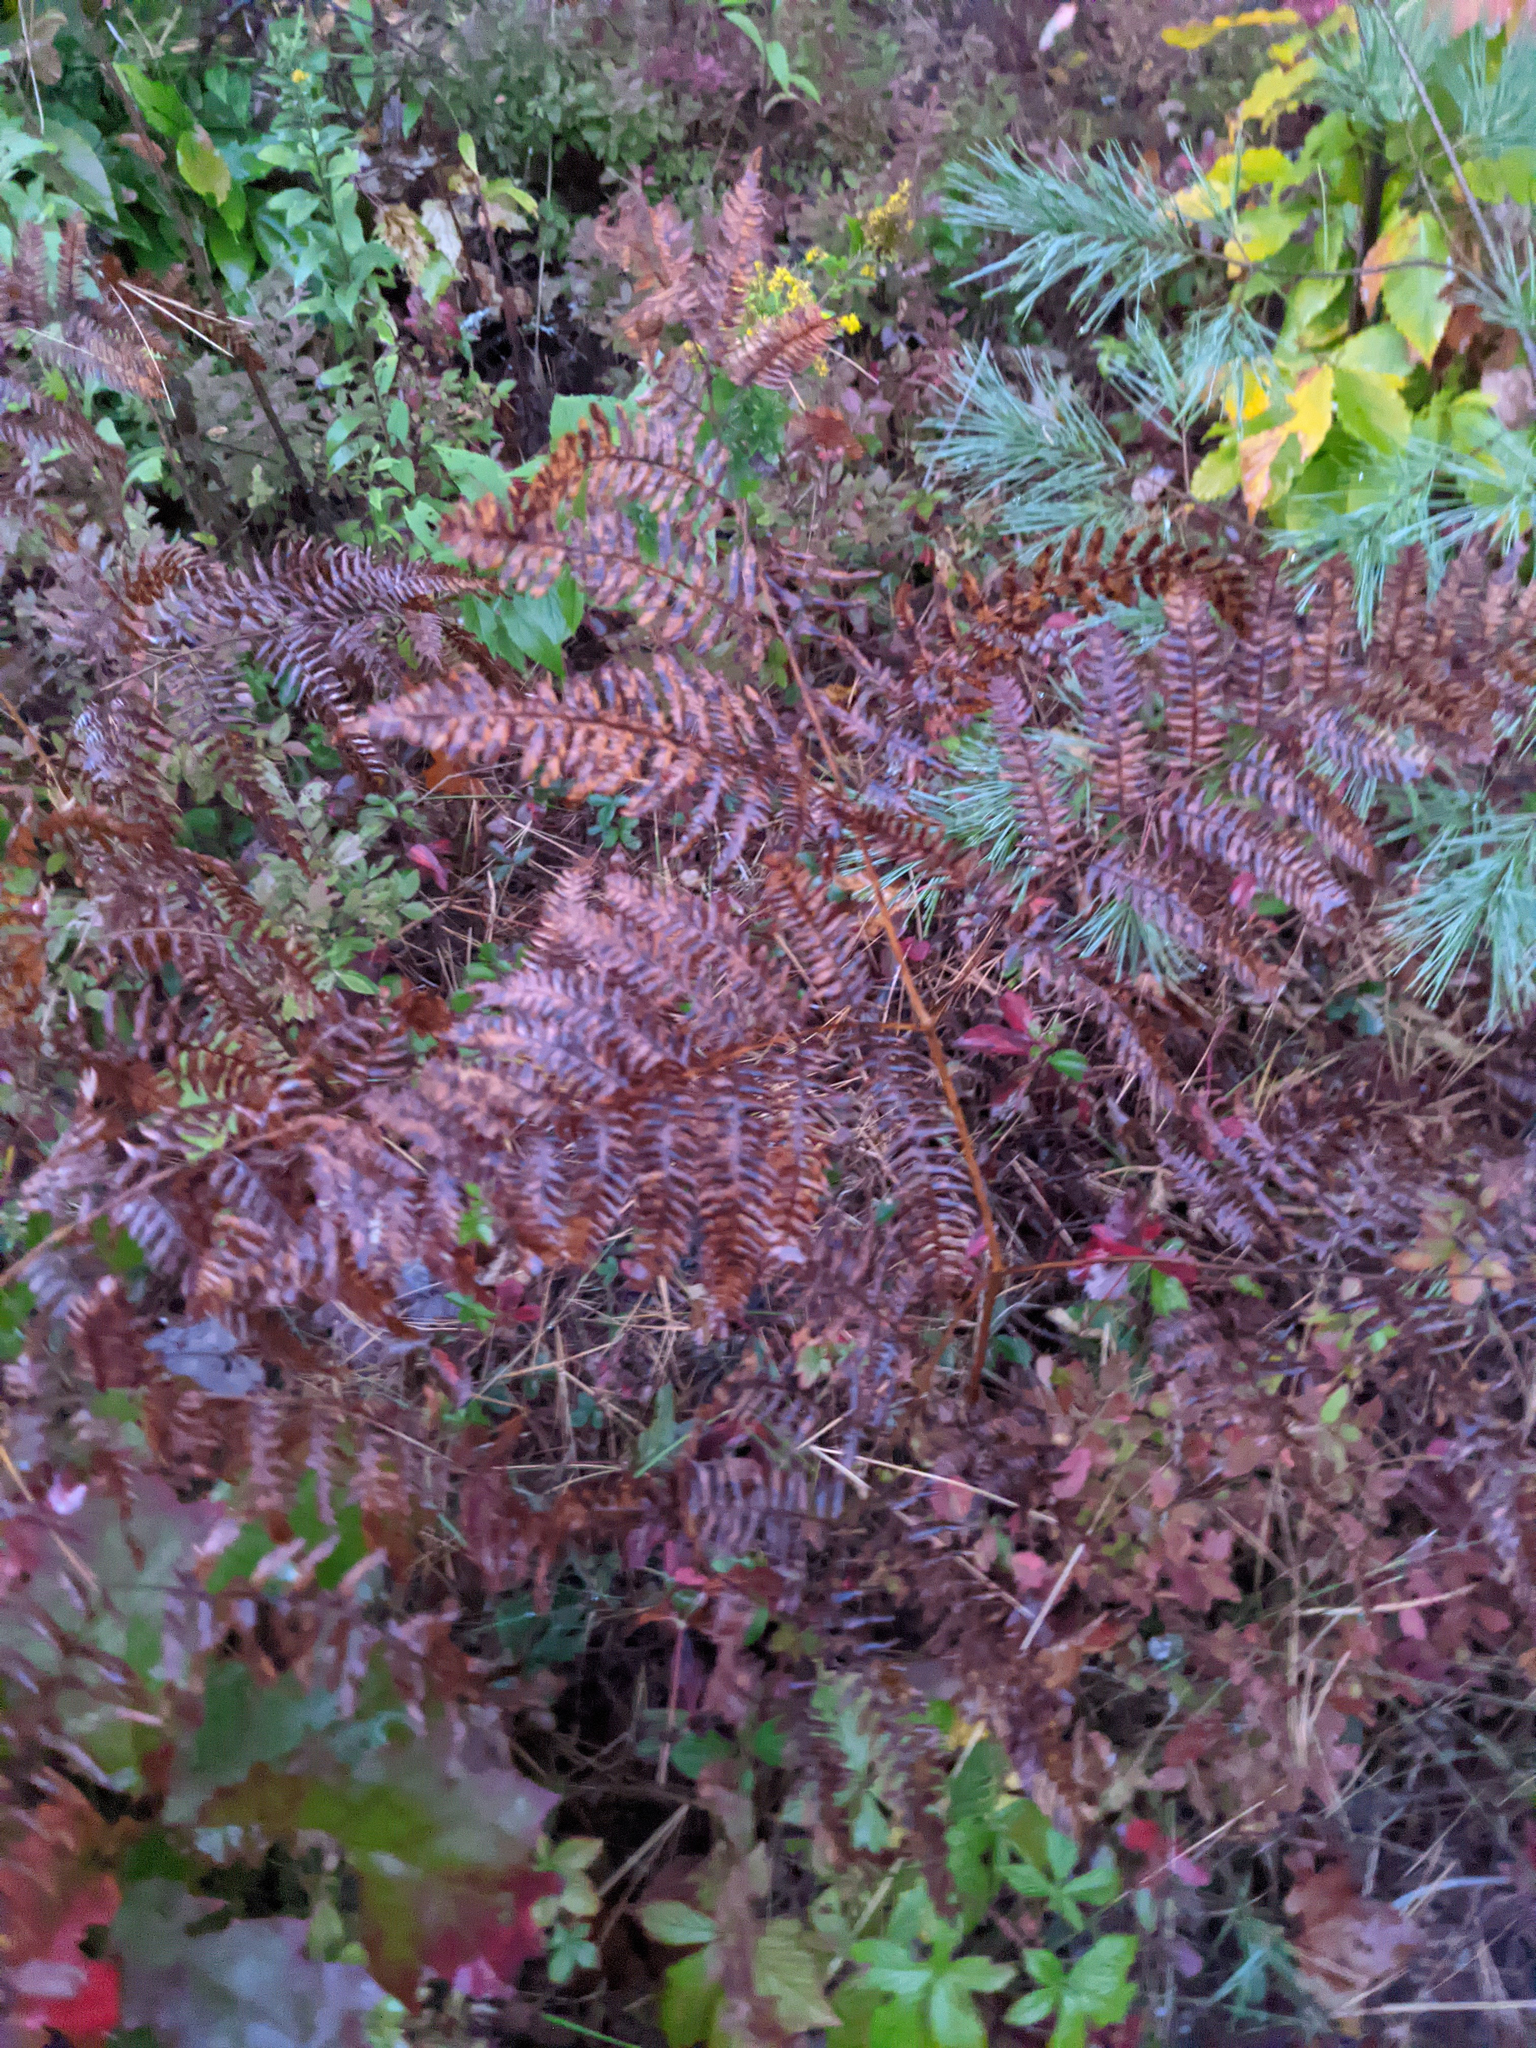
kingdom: Plantae
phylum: Tracheophyta
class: Polypodiopsida
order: Polypodiales
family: Dennstaedtiaceae
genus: Pteridium
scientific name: Pteridium aquilinum
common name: Bracken
